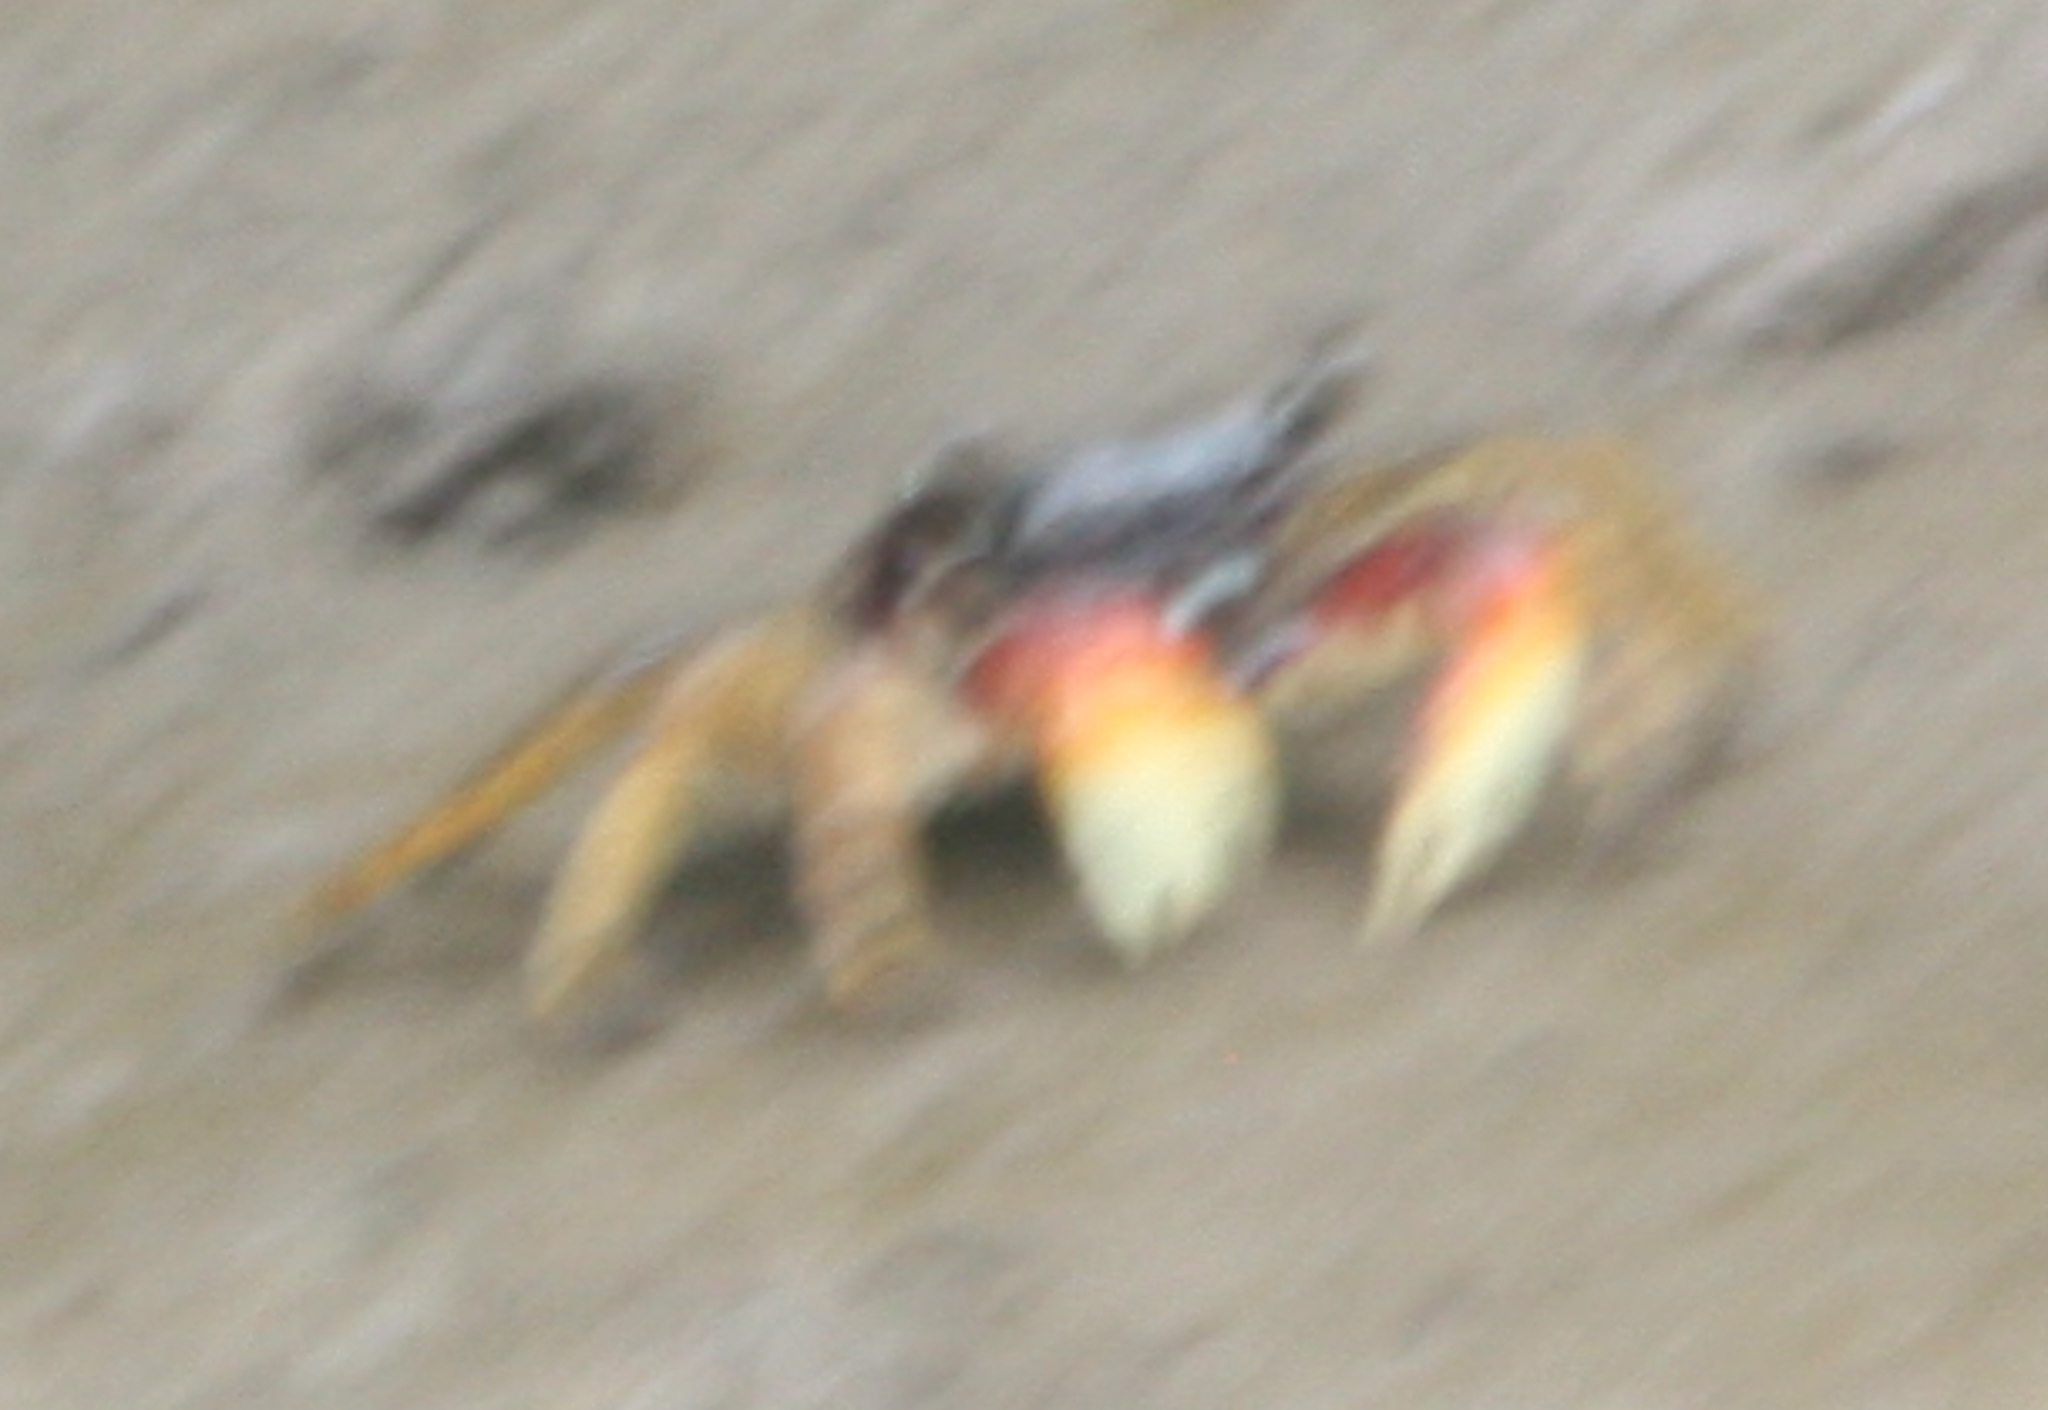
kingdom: Animalia
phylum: Arthropoda
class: Malacostraca
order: Decapoda
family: Grapsidae
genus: Goniopsis
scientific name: Goniopsis pulchra
